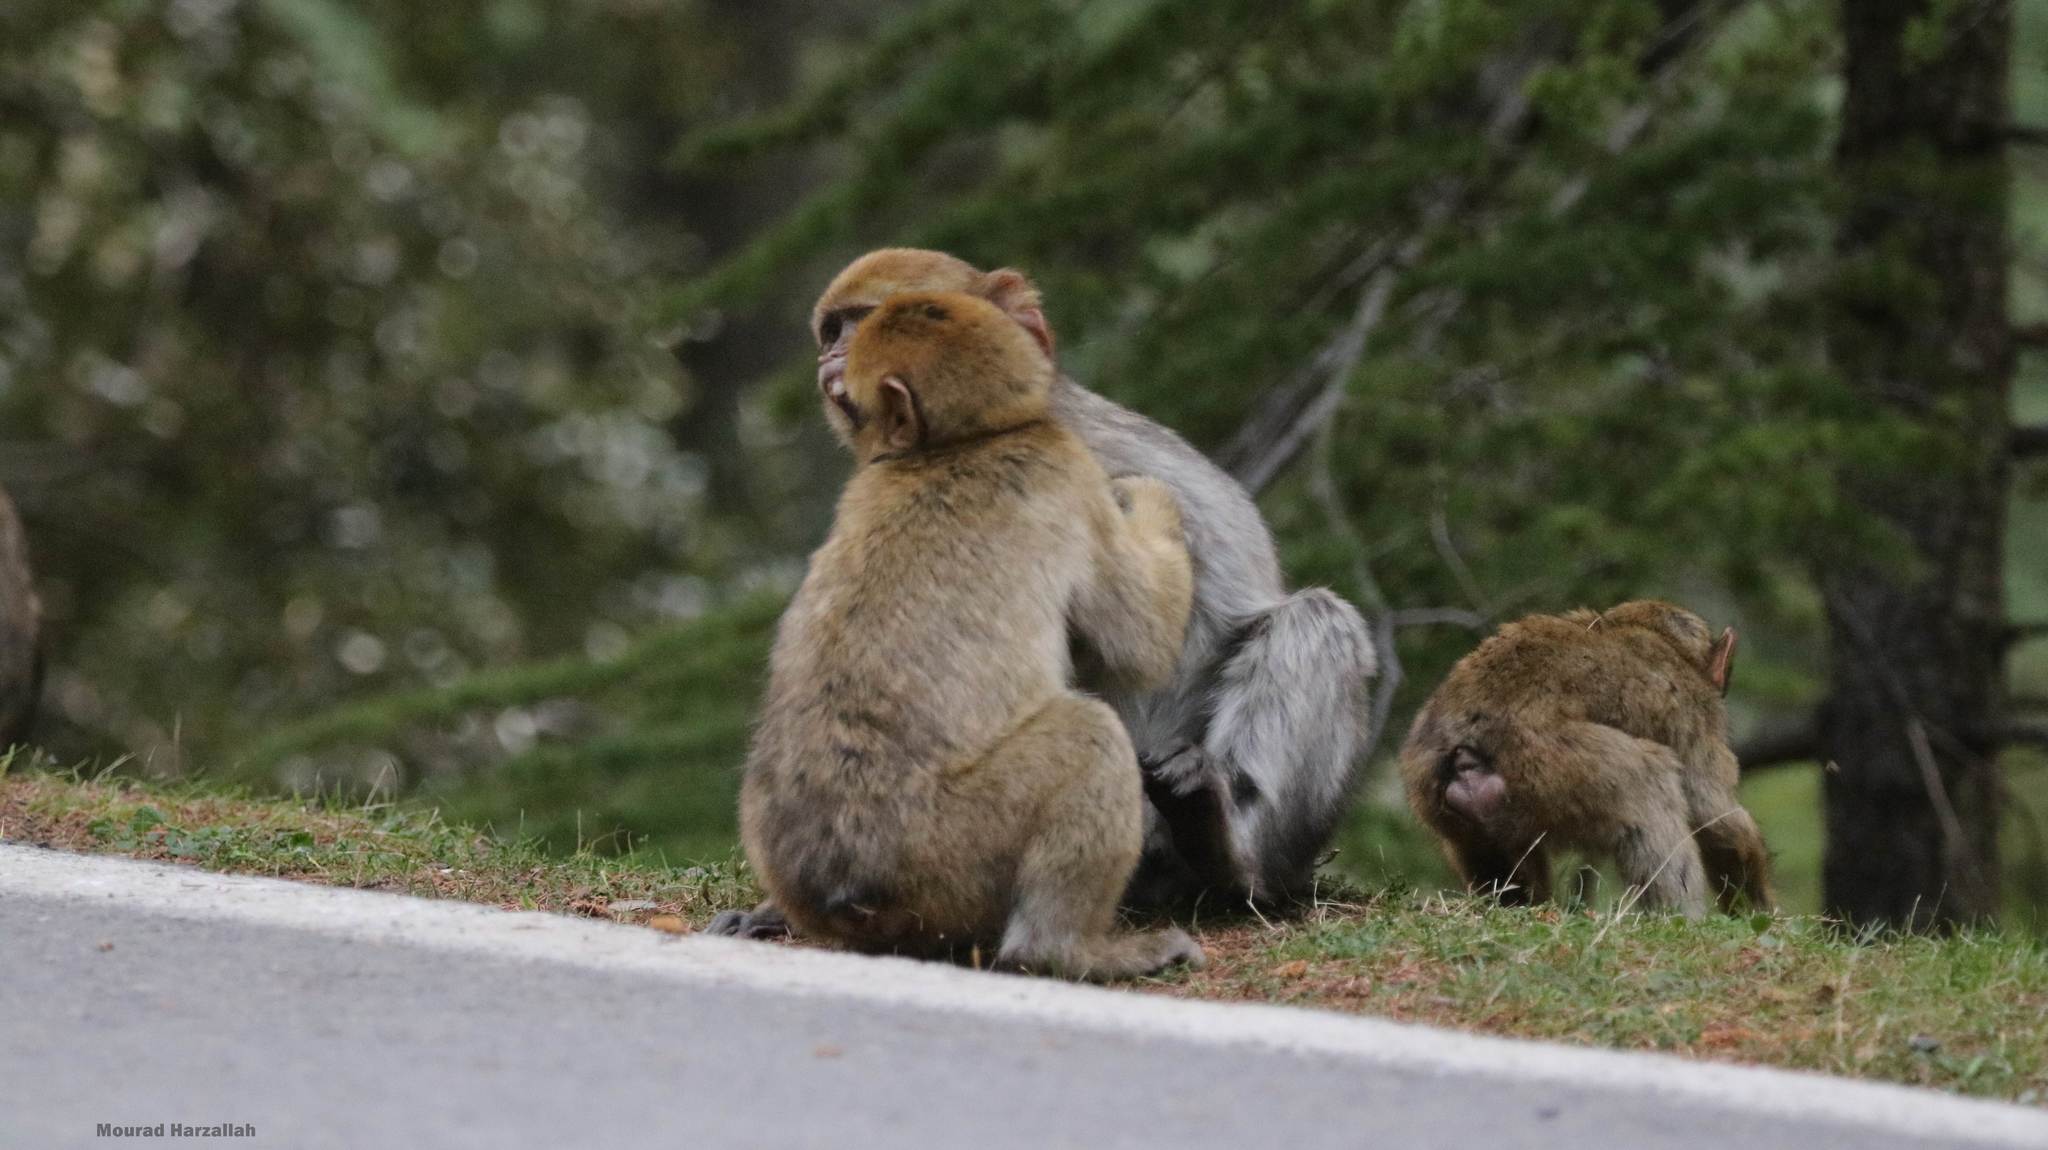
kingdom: Animalia
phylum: Chordata
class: Mammalia
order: Primates
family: Cercopithecidae
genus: Macaca
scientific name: Macaca sylvanus
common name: Barbary macaque
